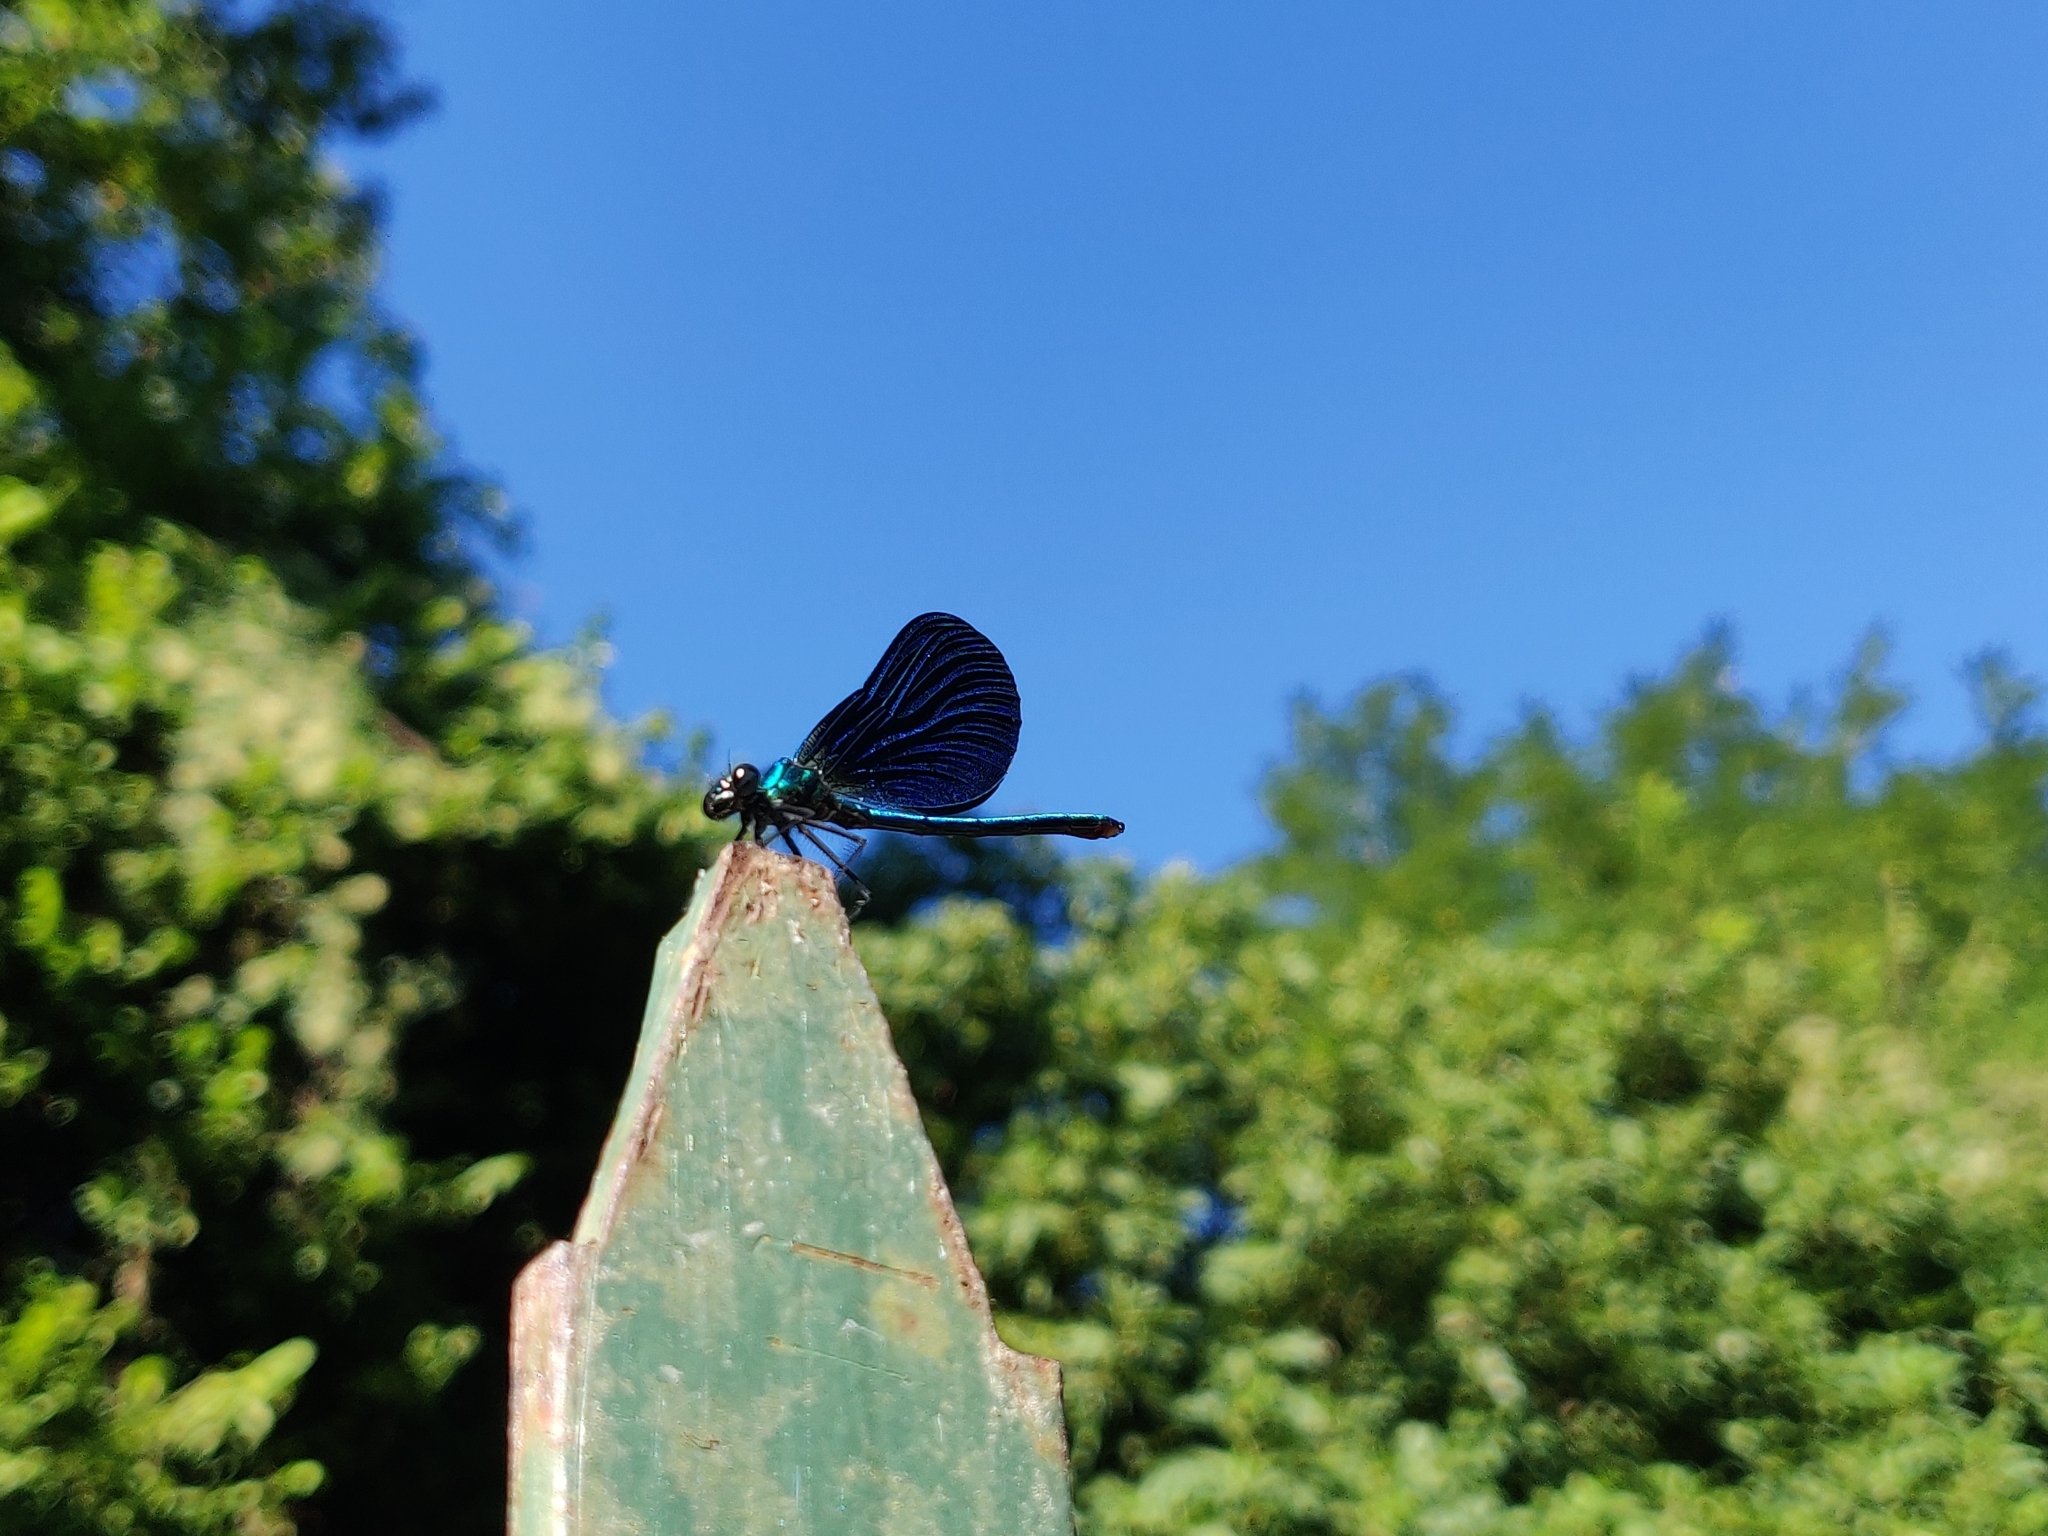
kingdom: Animalia
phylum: Arthropoda
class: Insecta
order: Odonata
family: Calopterygidae
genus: Calopteryx
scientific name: Calopteryx virgo
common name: Beautiful demoiselle
